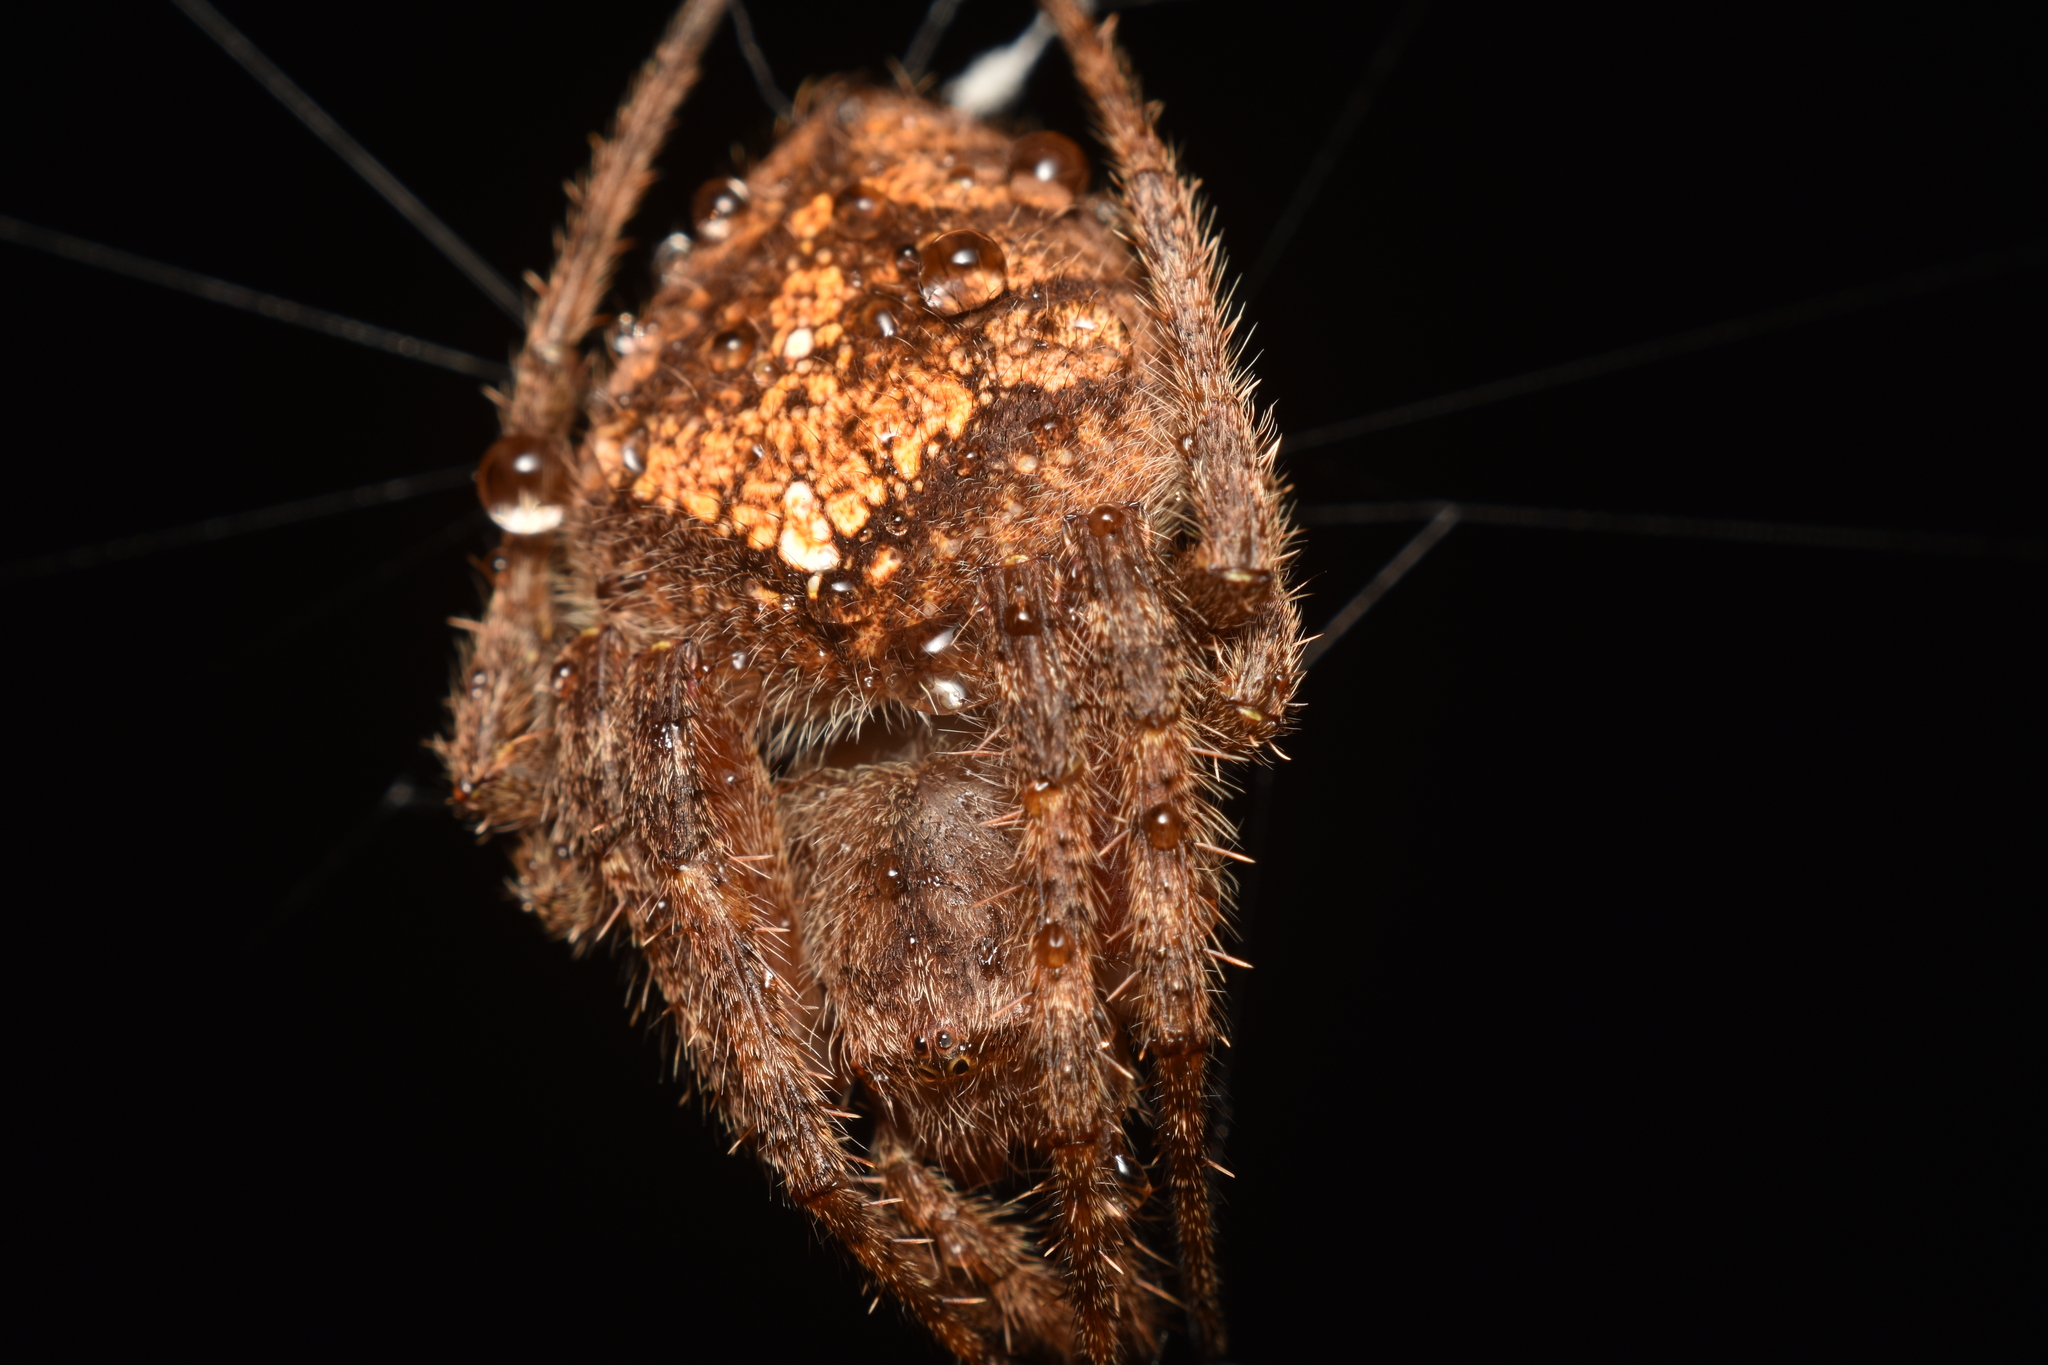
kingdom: Animalia
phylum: Arthropoda
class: Arachnida
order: Araneae
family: Araneidae
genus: Eriophora
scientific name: Eriophora edax
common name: Orb weavers
